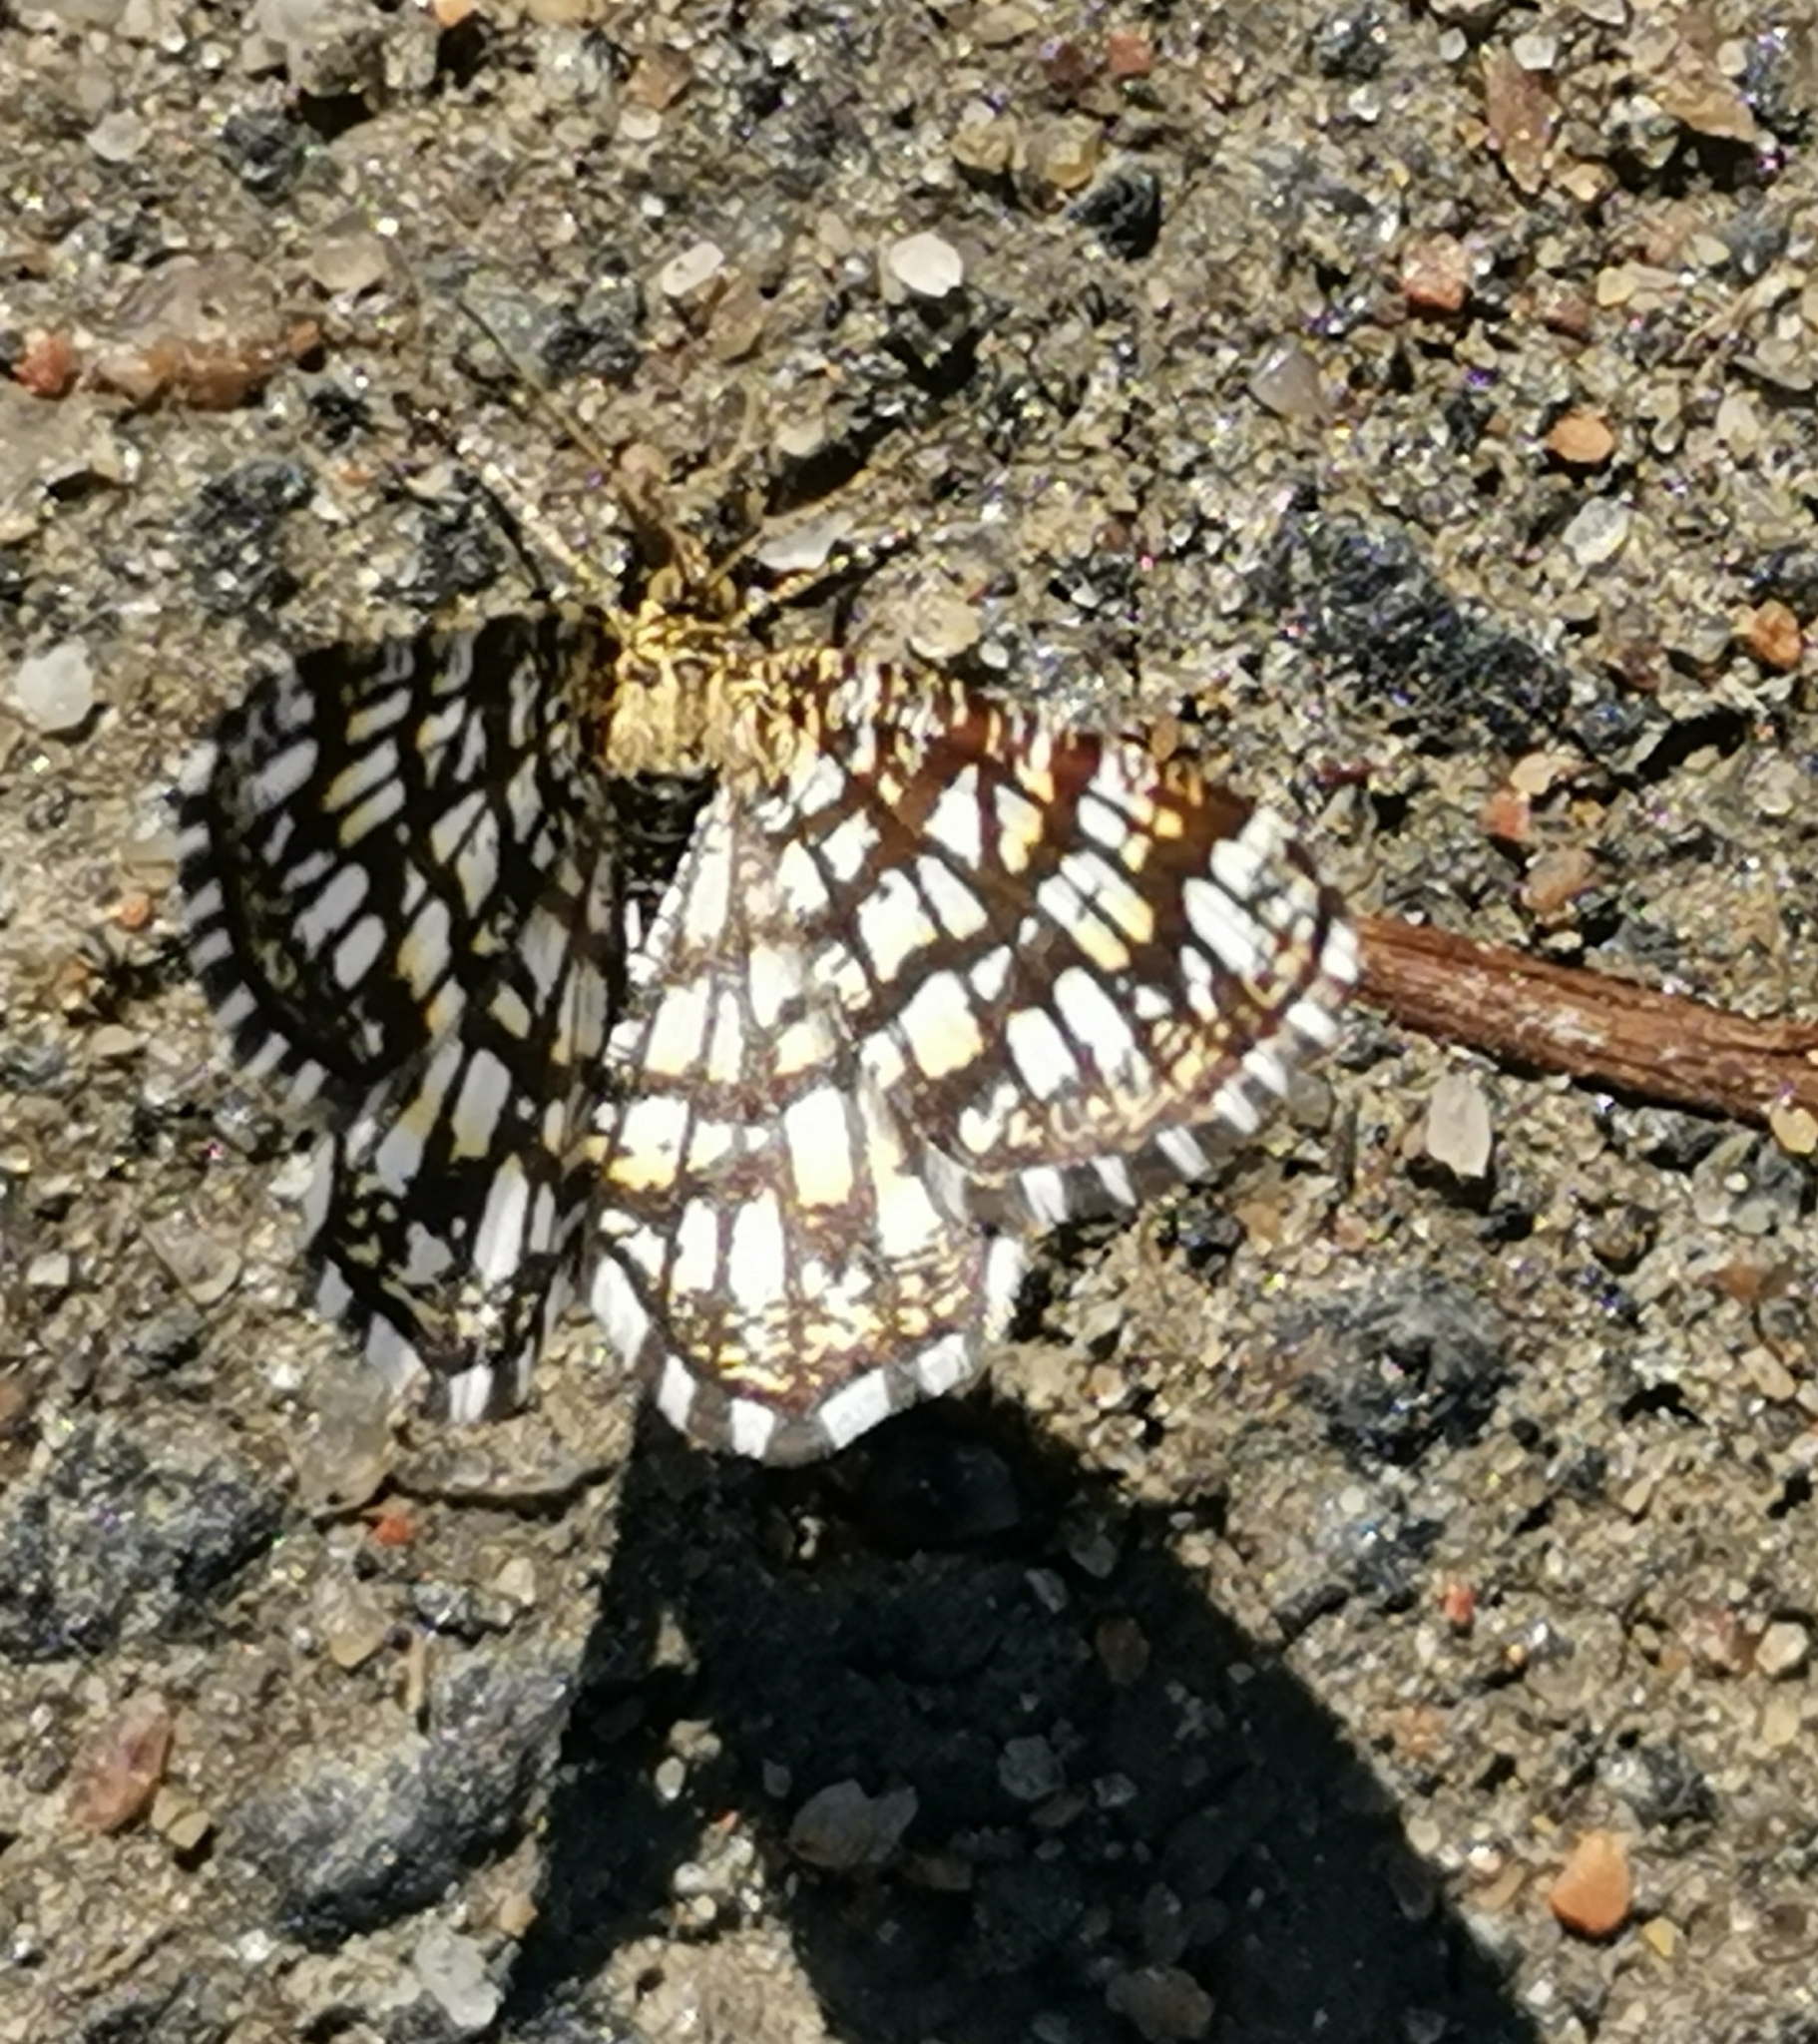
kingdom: Animalia
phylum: Arthropoda
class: Insecta
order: Lepidoptera
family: Geometridae
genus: Chiasmia
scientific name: Chiasmia clathrata
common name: Latticed heath
